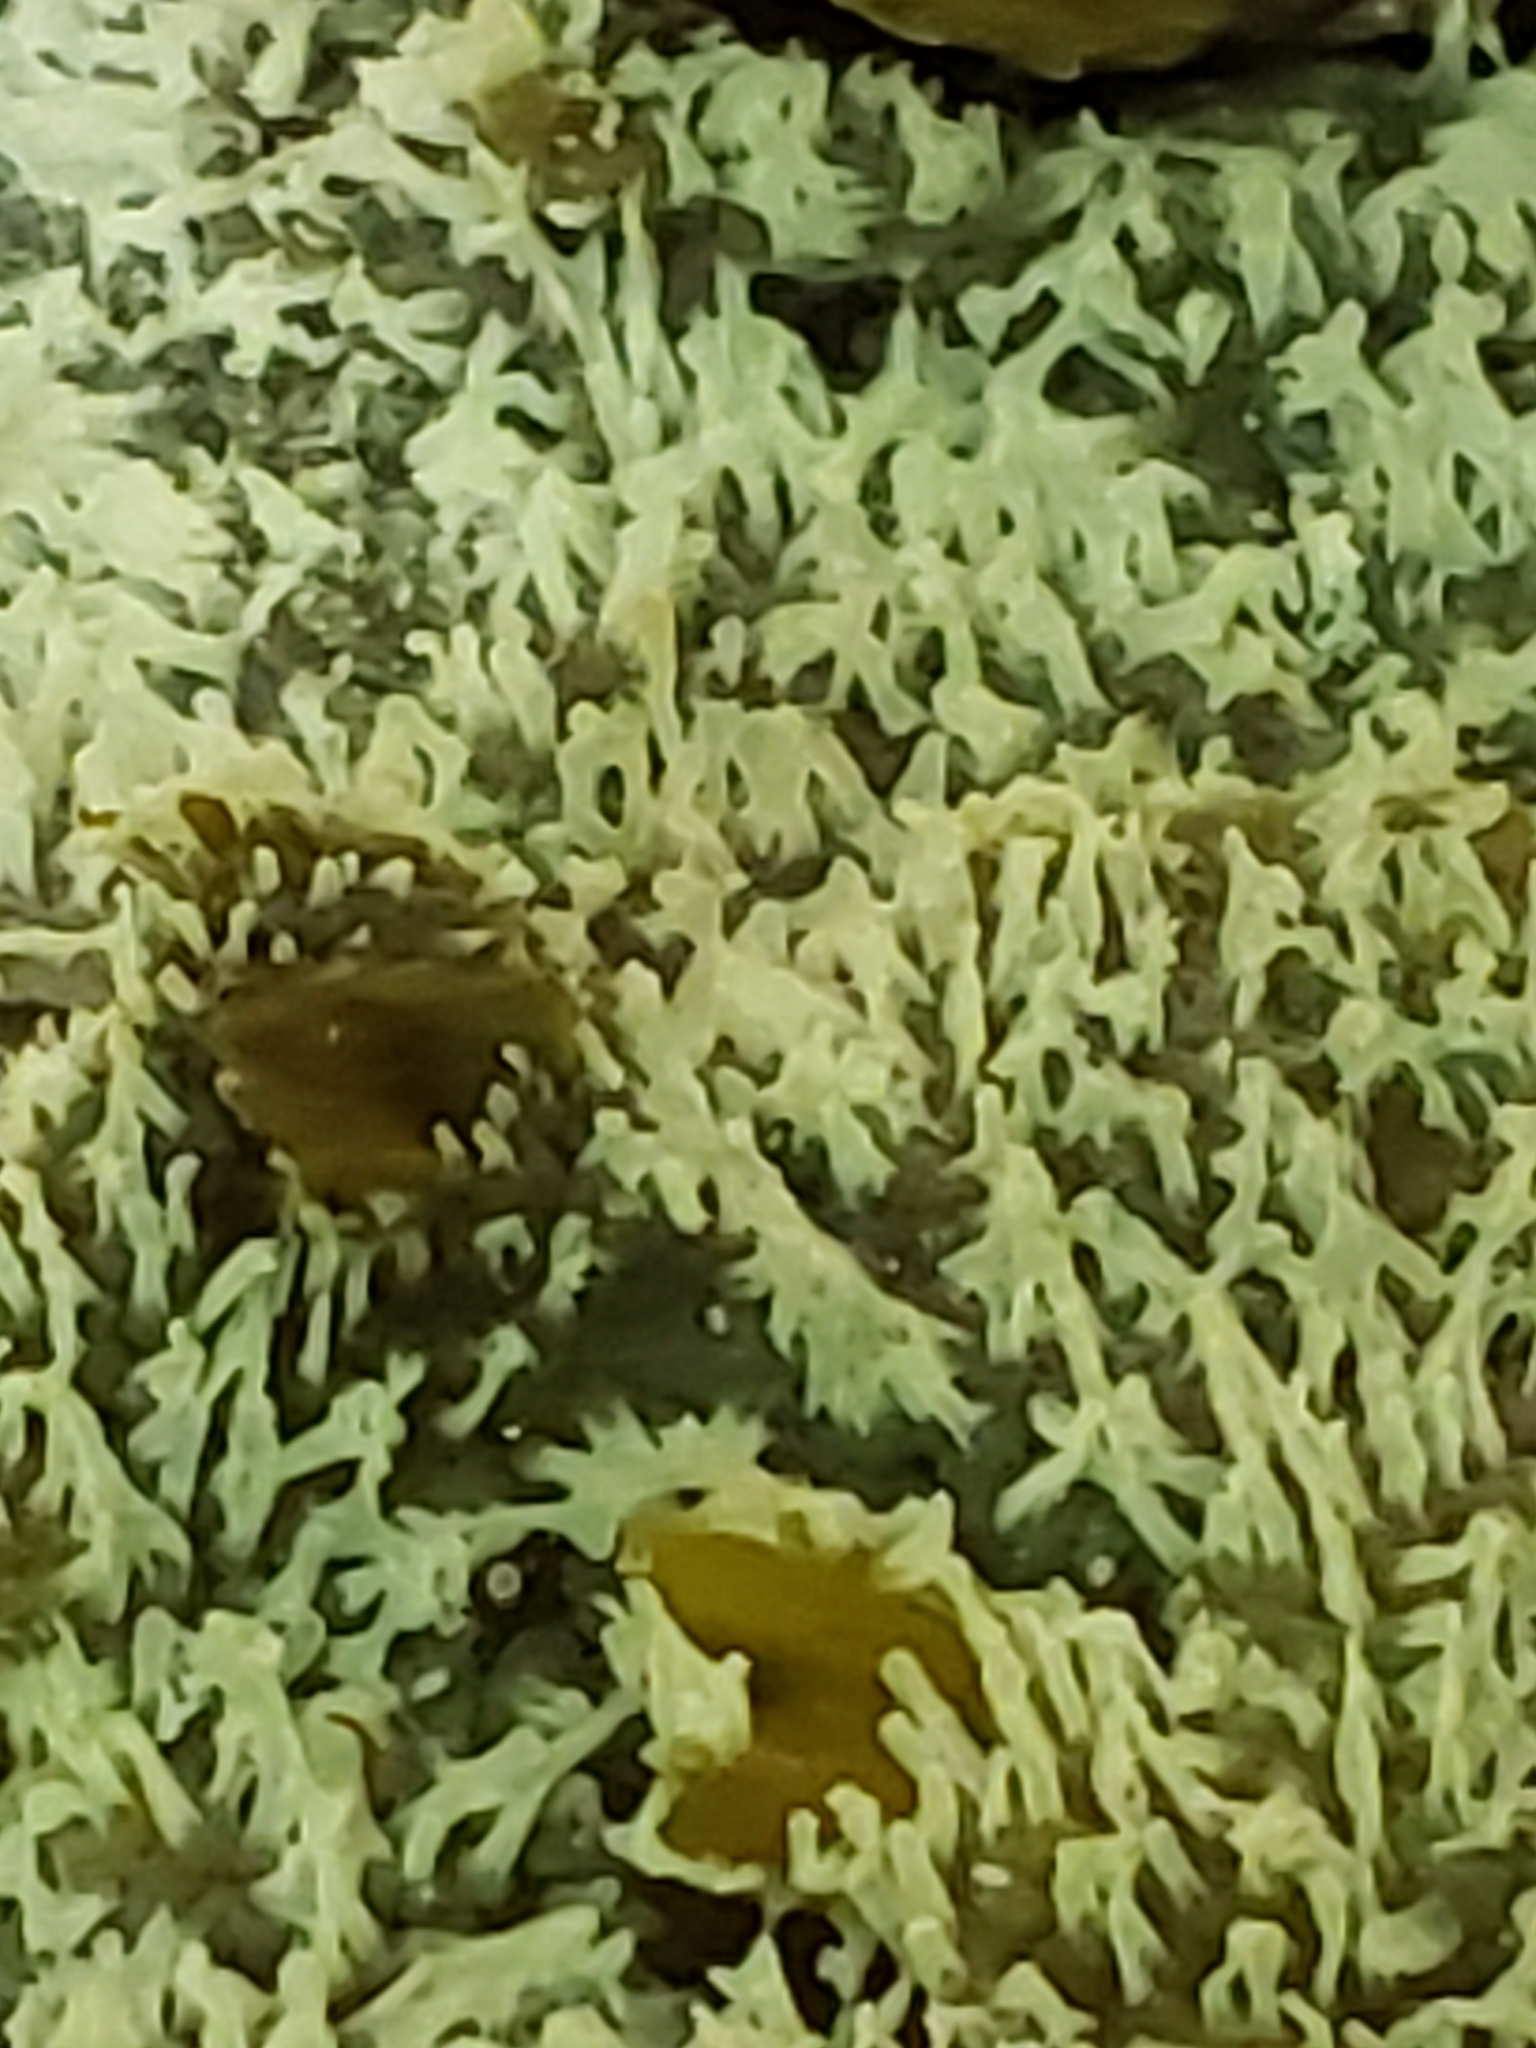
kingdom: Protozoa
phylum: Mycetozoa
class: Protosteliomycetes
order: Ceratiomyxales
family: Ceratiomyxaceae
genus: Ceratiomyxa
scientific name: Ceratiomyxa fruticulosa
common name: Honeycomb coral slime mold
